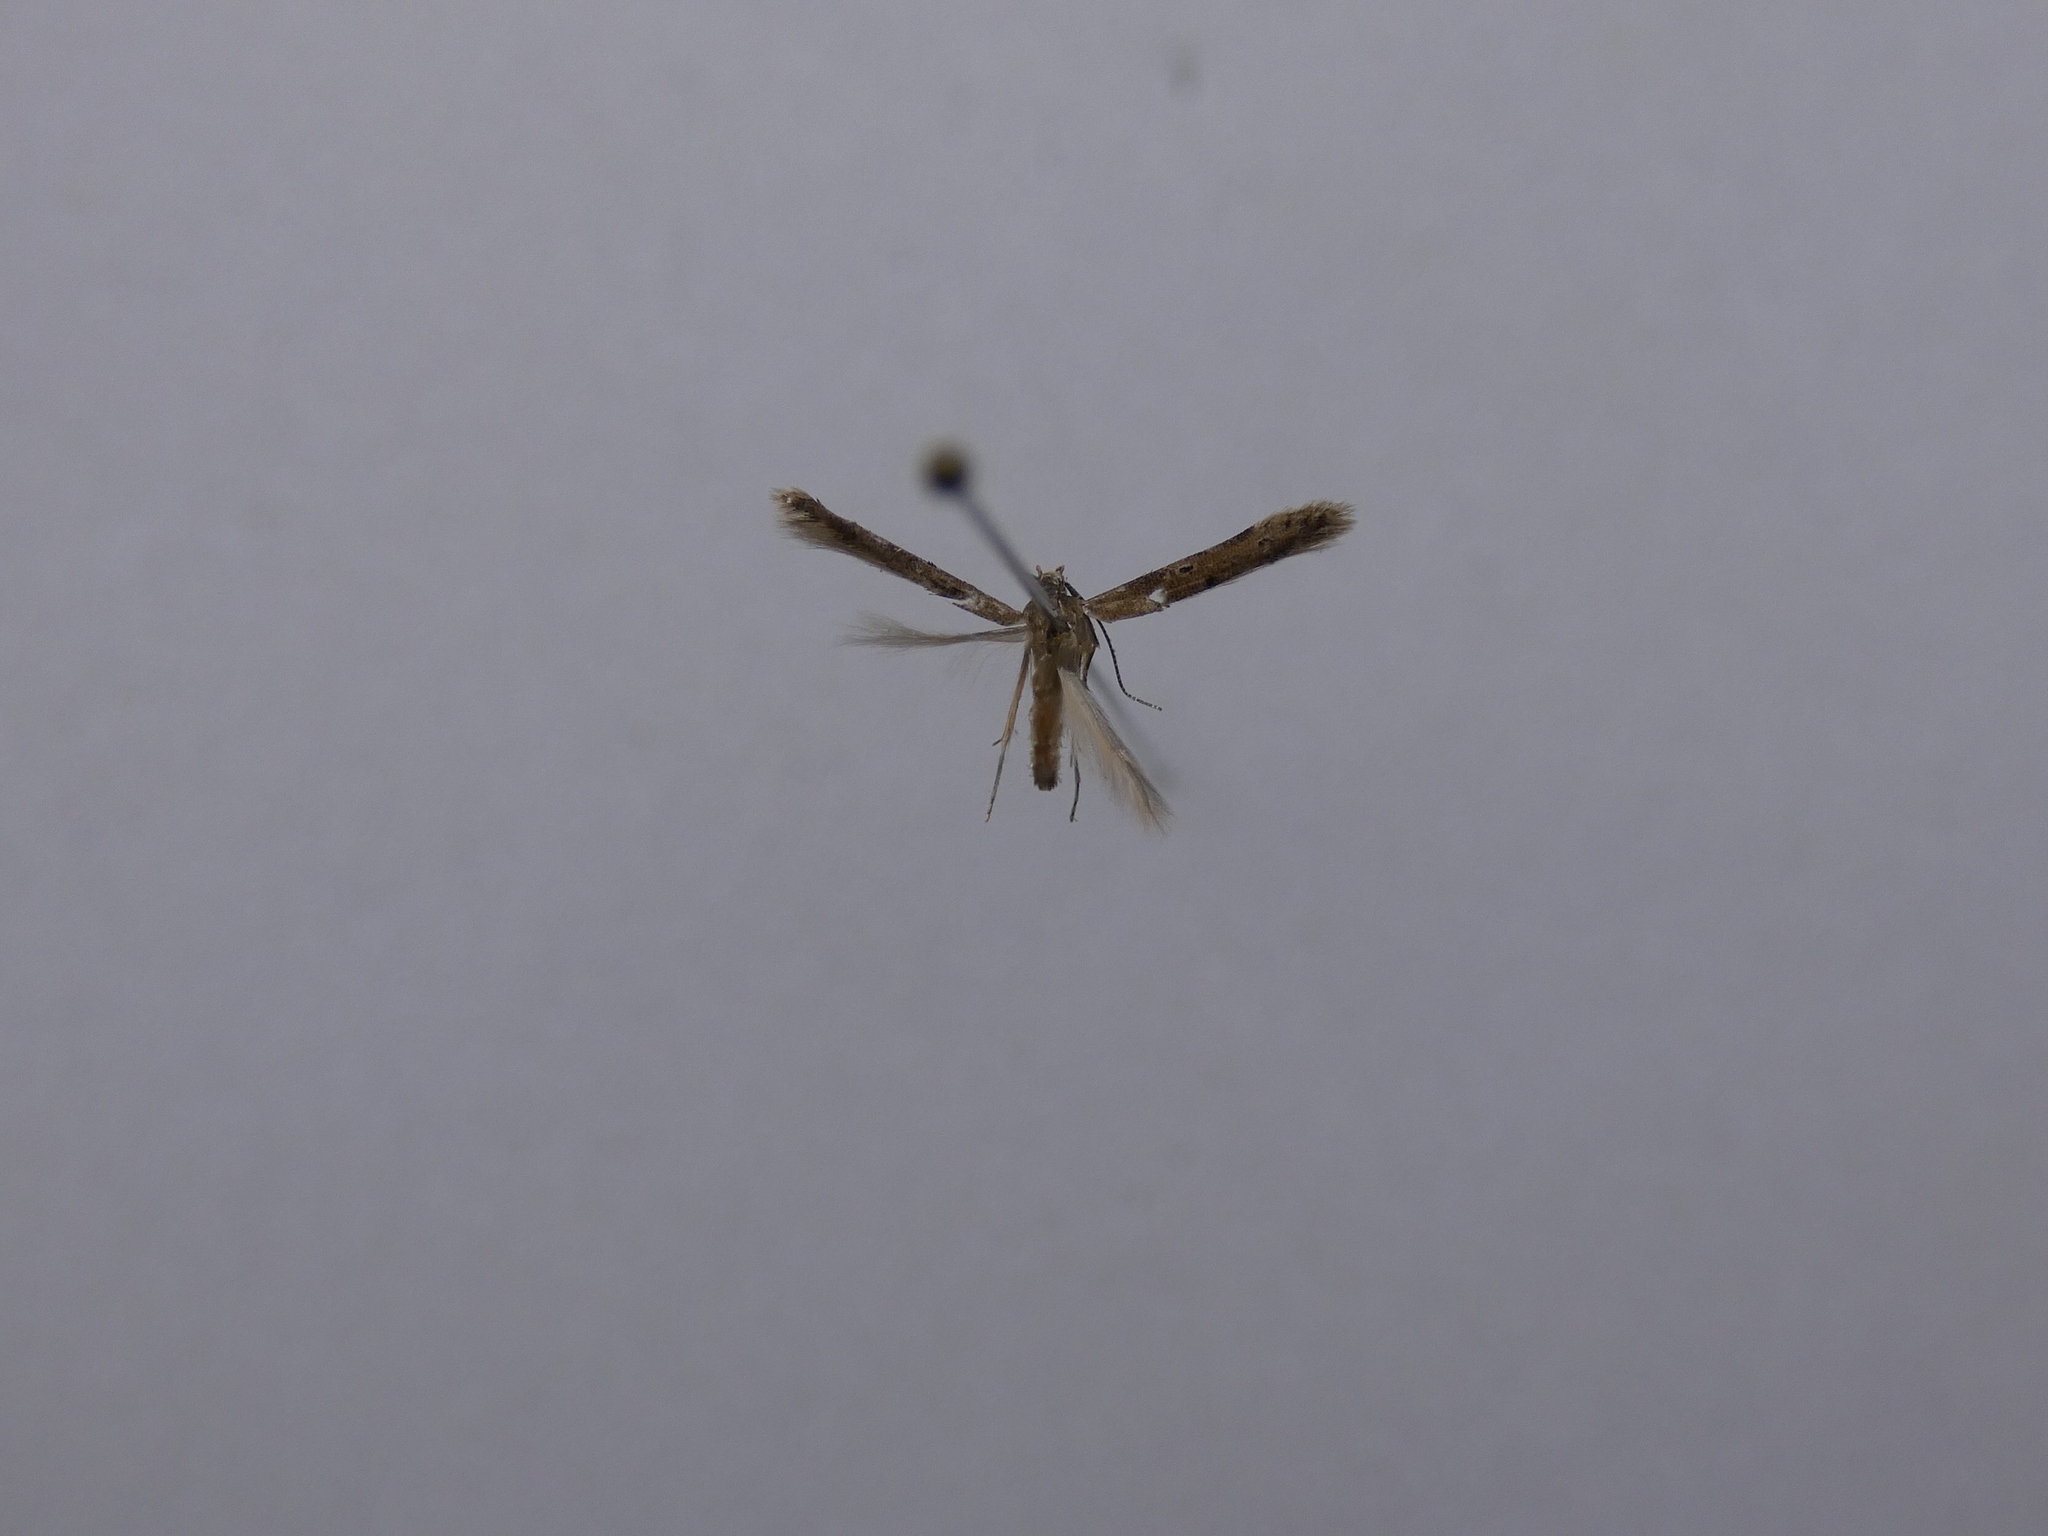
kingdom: Animalia
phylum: Arthropoda
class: Insecta
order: Lepidoptera
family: Elachistidae
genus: Microcolona
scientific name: Microcolona limodes
